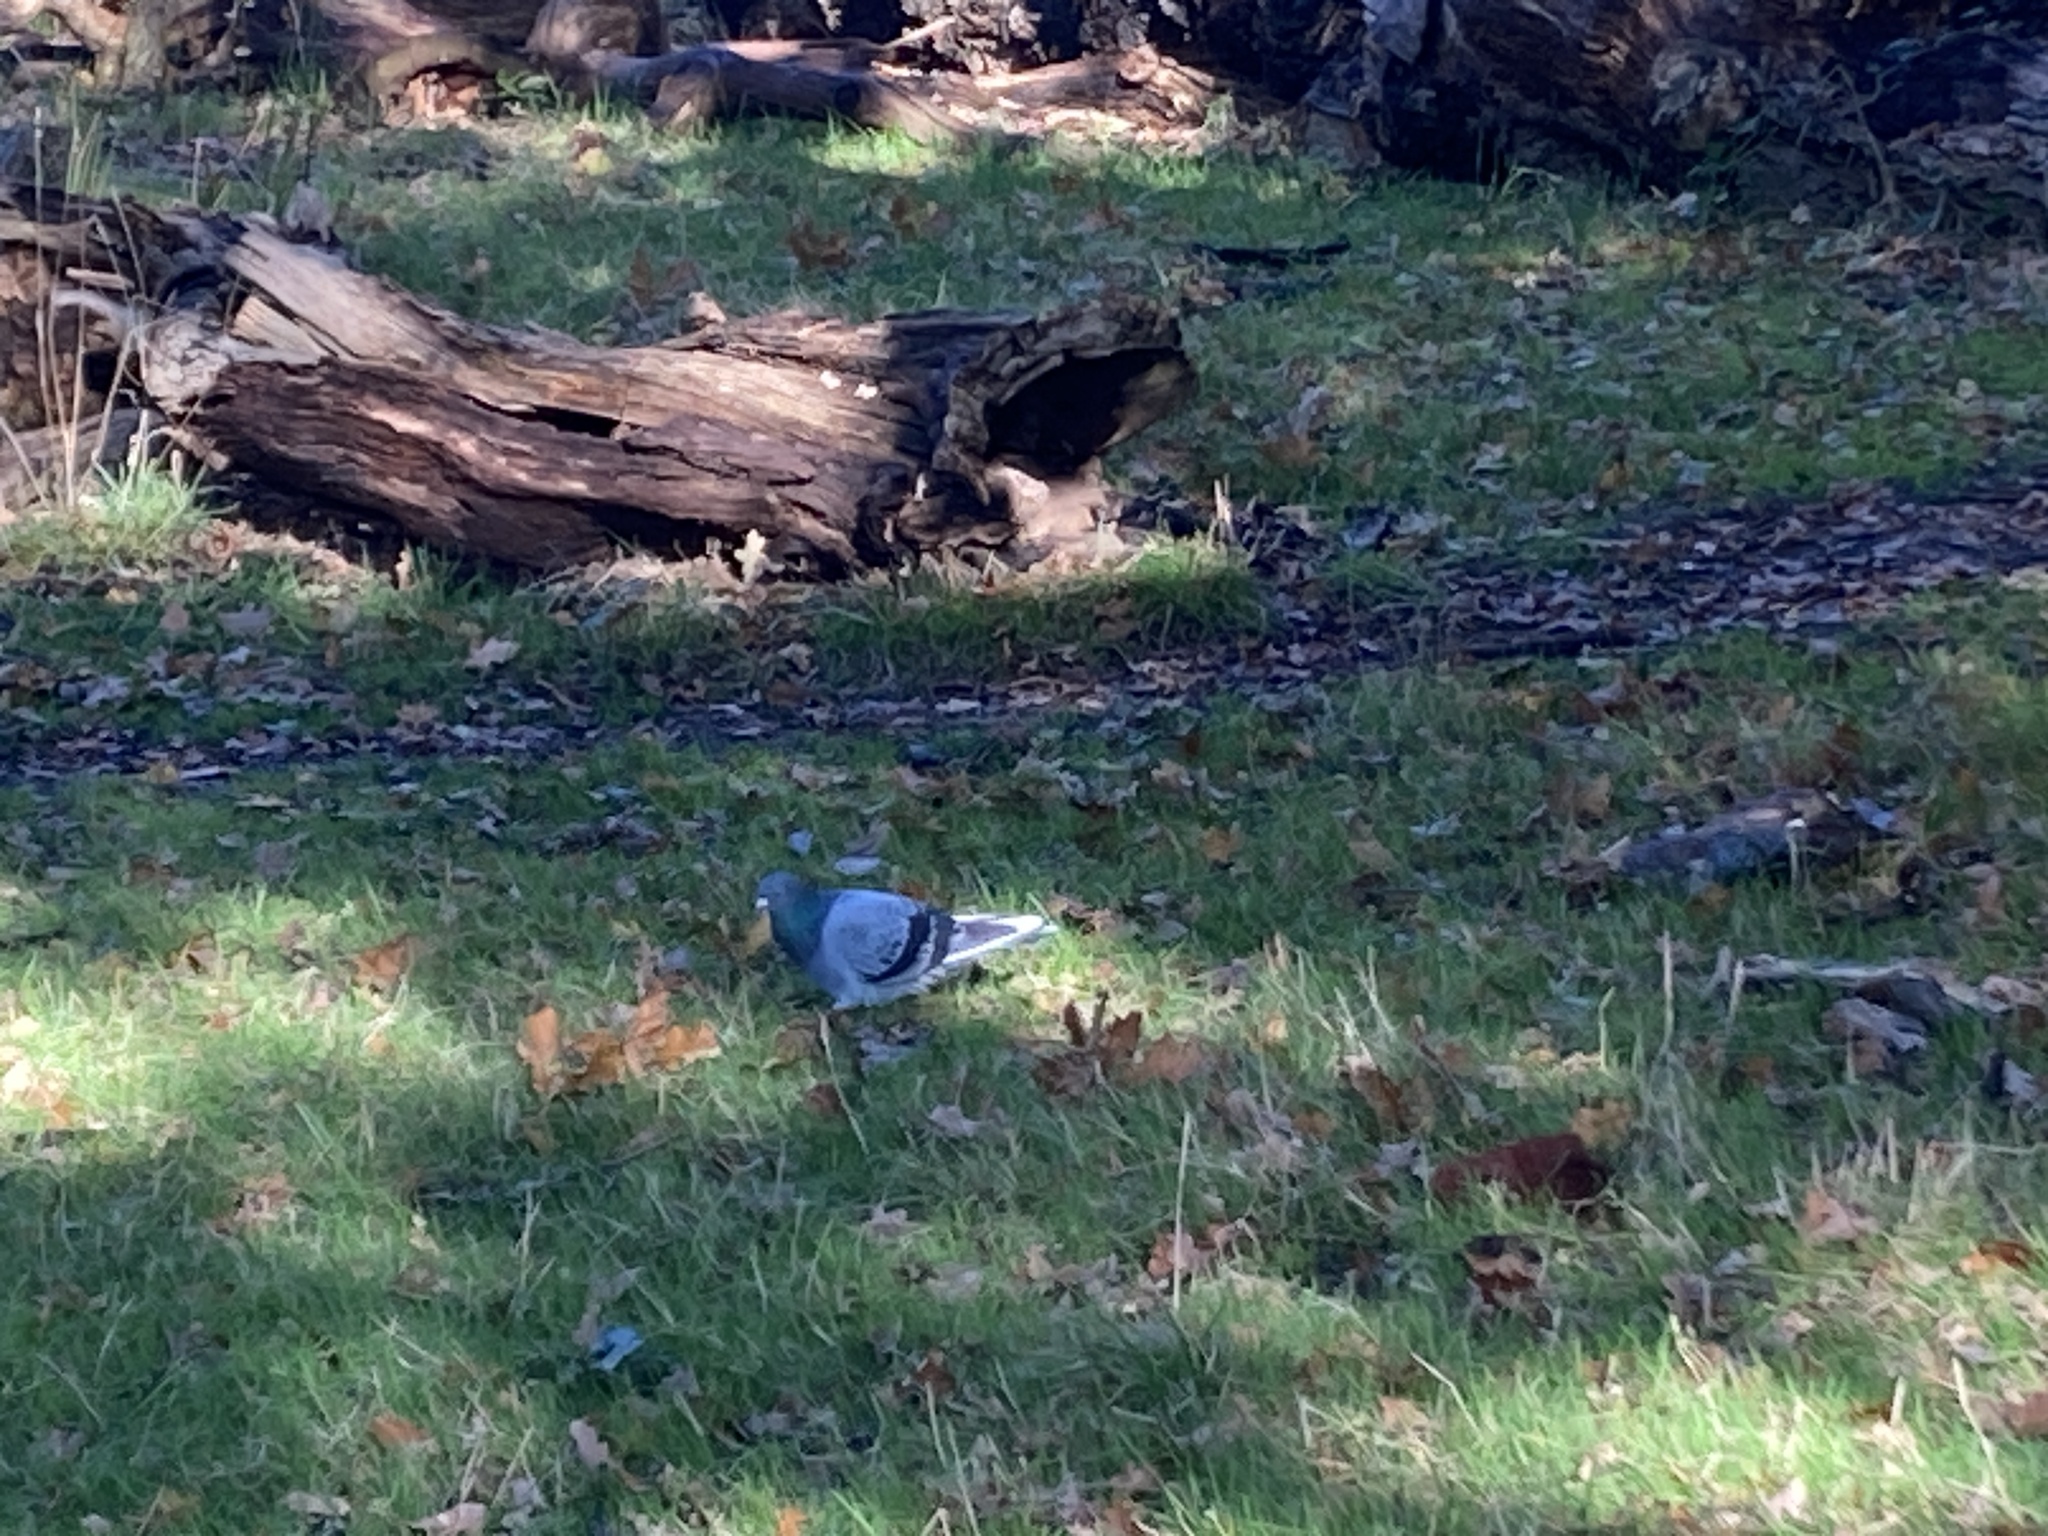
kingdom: Animalia
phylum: Chordata
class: Aves
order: Columbiformes
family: Columbidae
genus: Columba
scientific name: Columba livia
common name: Rock pigeon
